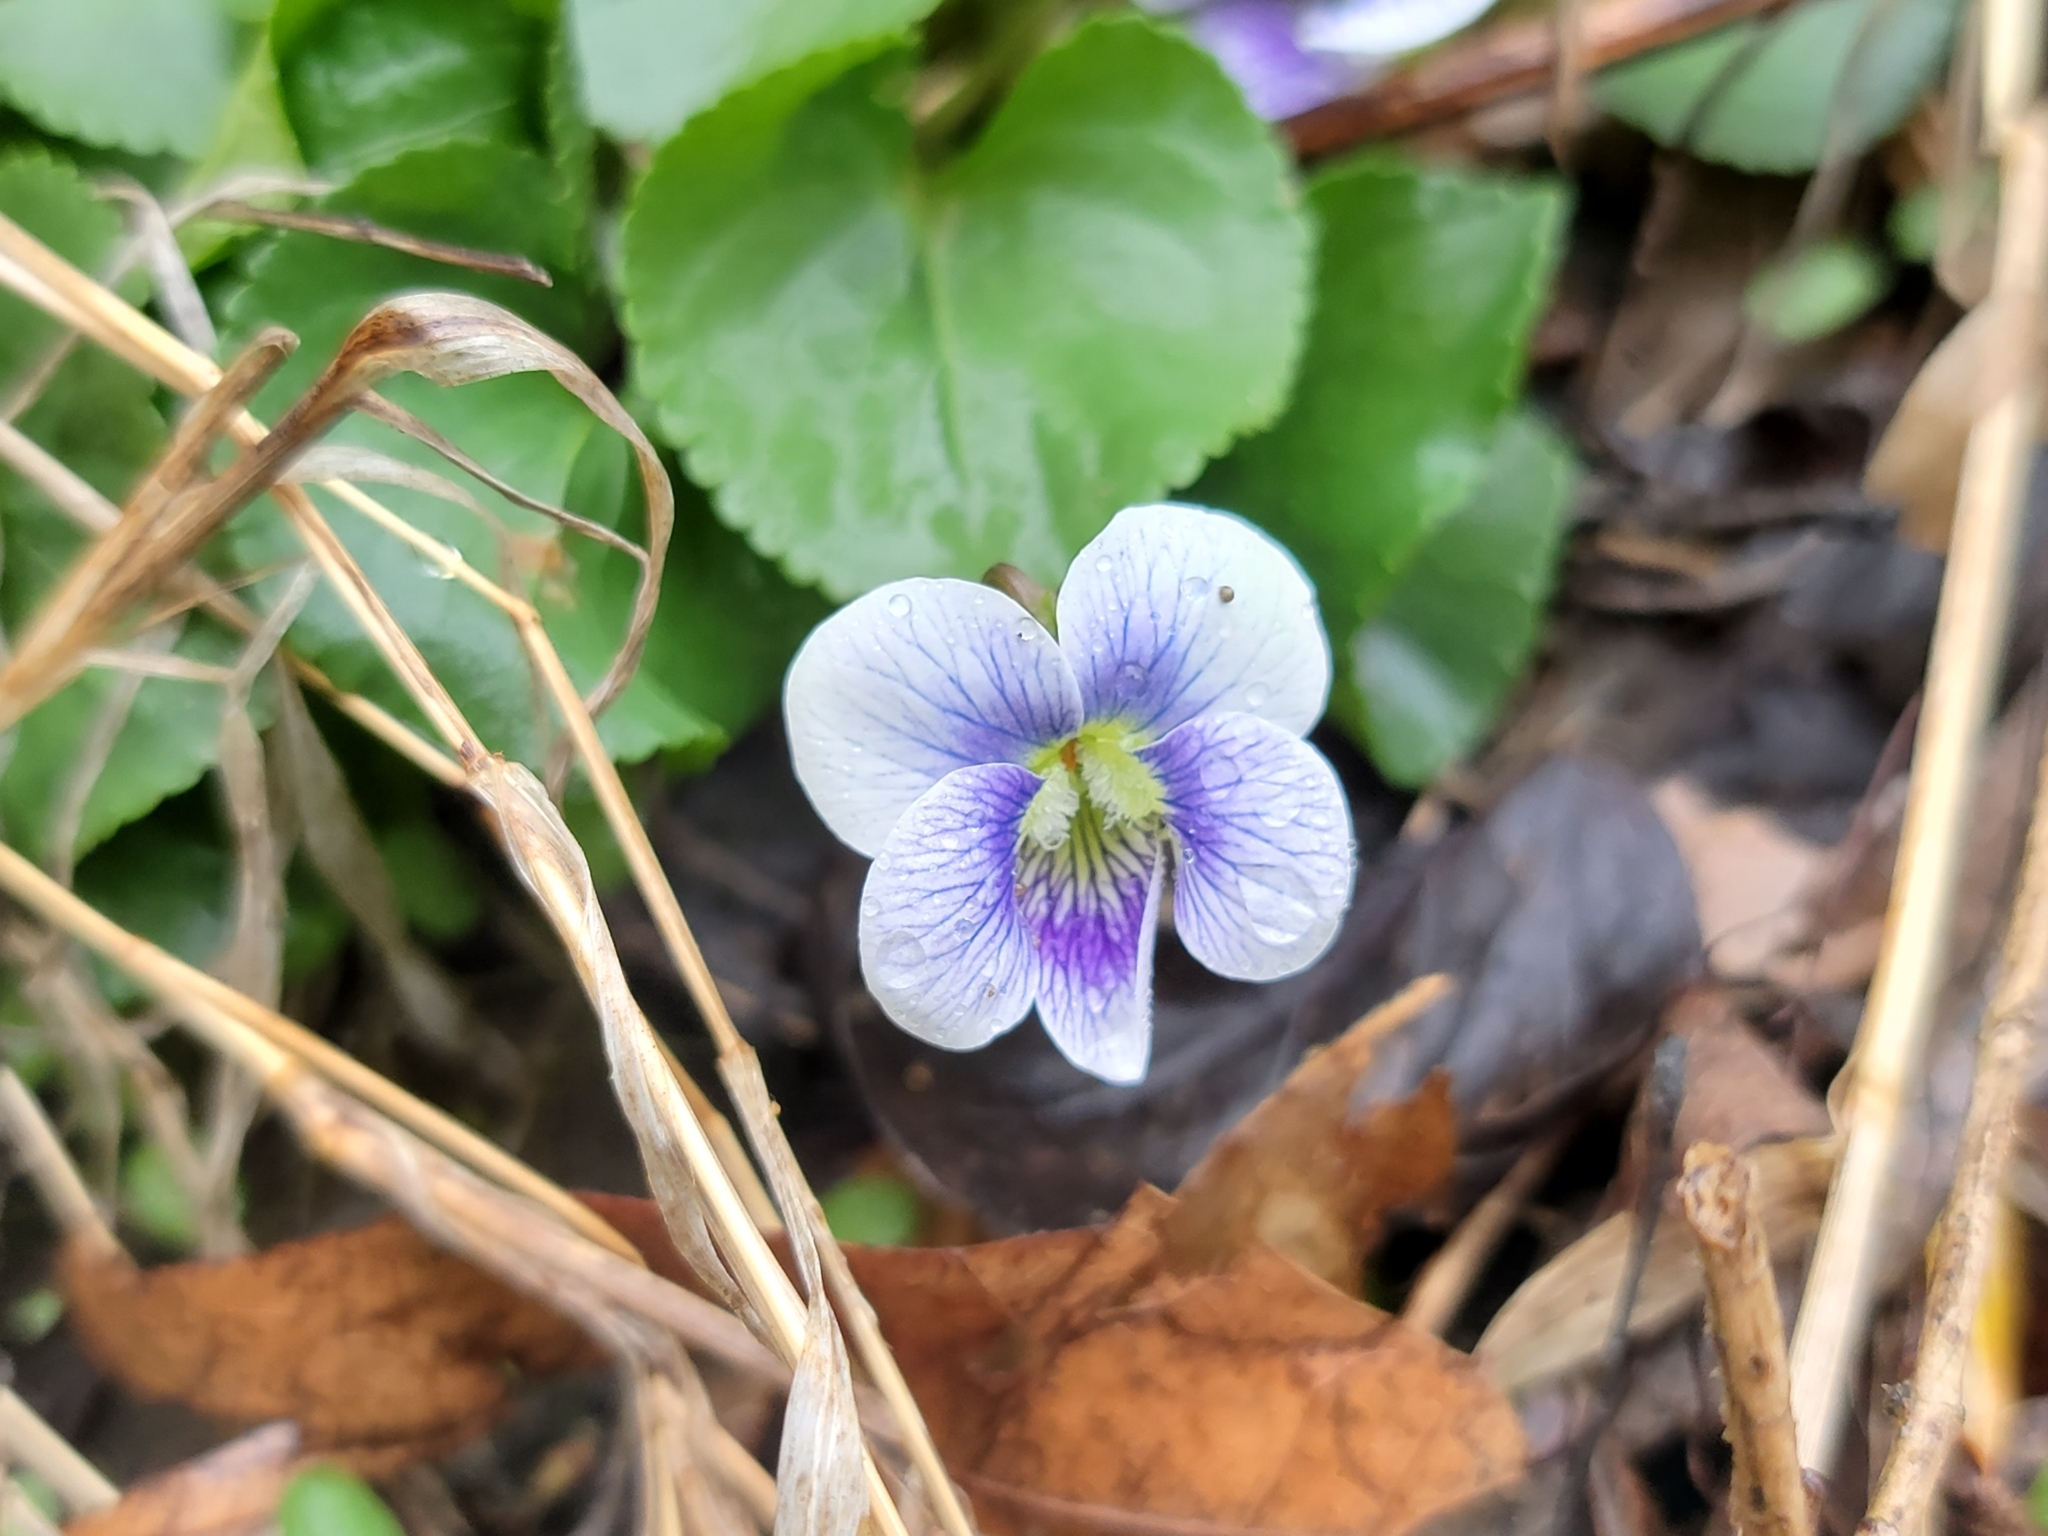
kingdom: Plantae
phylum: Tracheophyta
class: Magnoliopsida
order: Malpighiales
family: Violaceae
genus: Viola
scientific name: Viola sororia
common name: Dooryard violet
